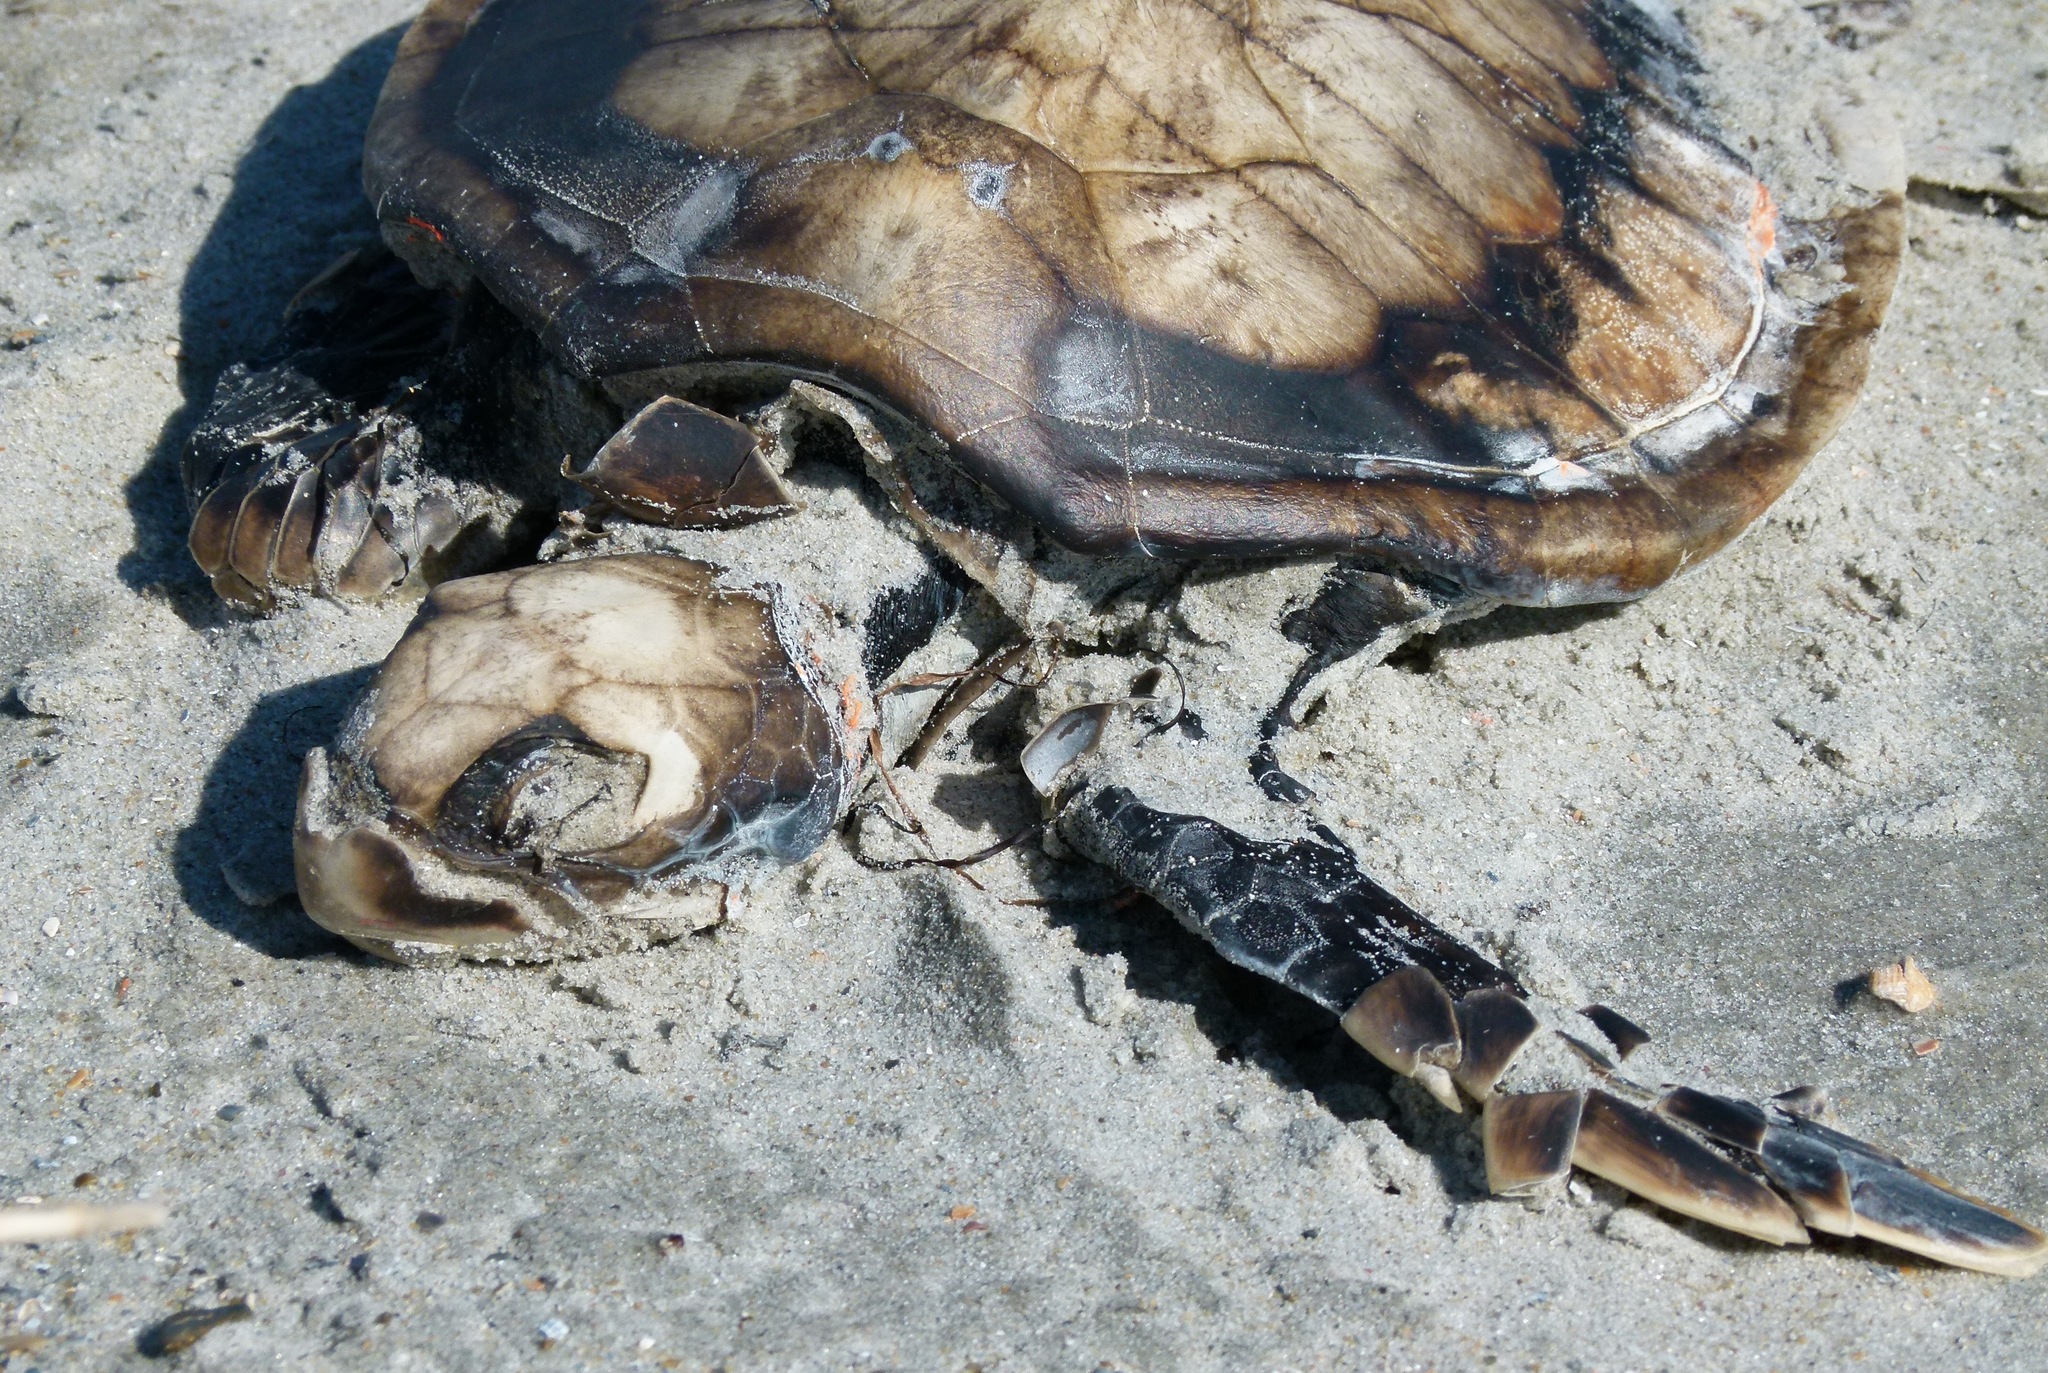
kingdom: Animalia
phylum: Chordata
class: Testudines
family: Cheloniidae
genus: Chelonia
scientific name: Chelonia mydas
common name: Green turtle
